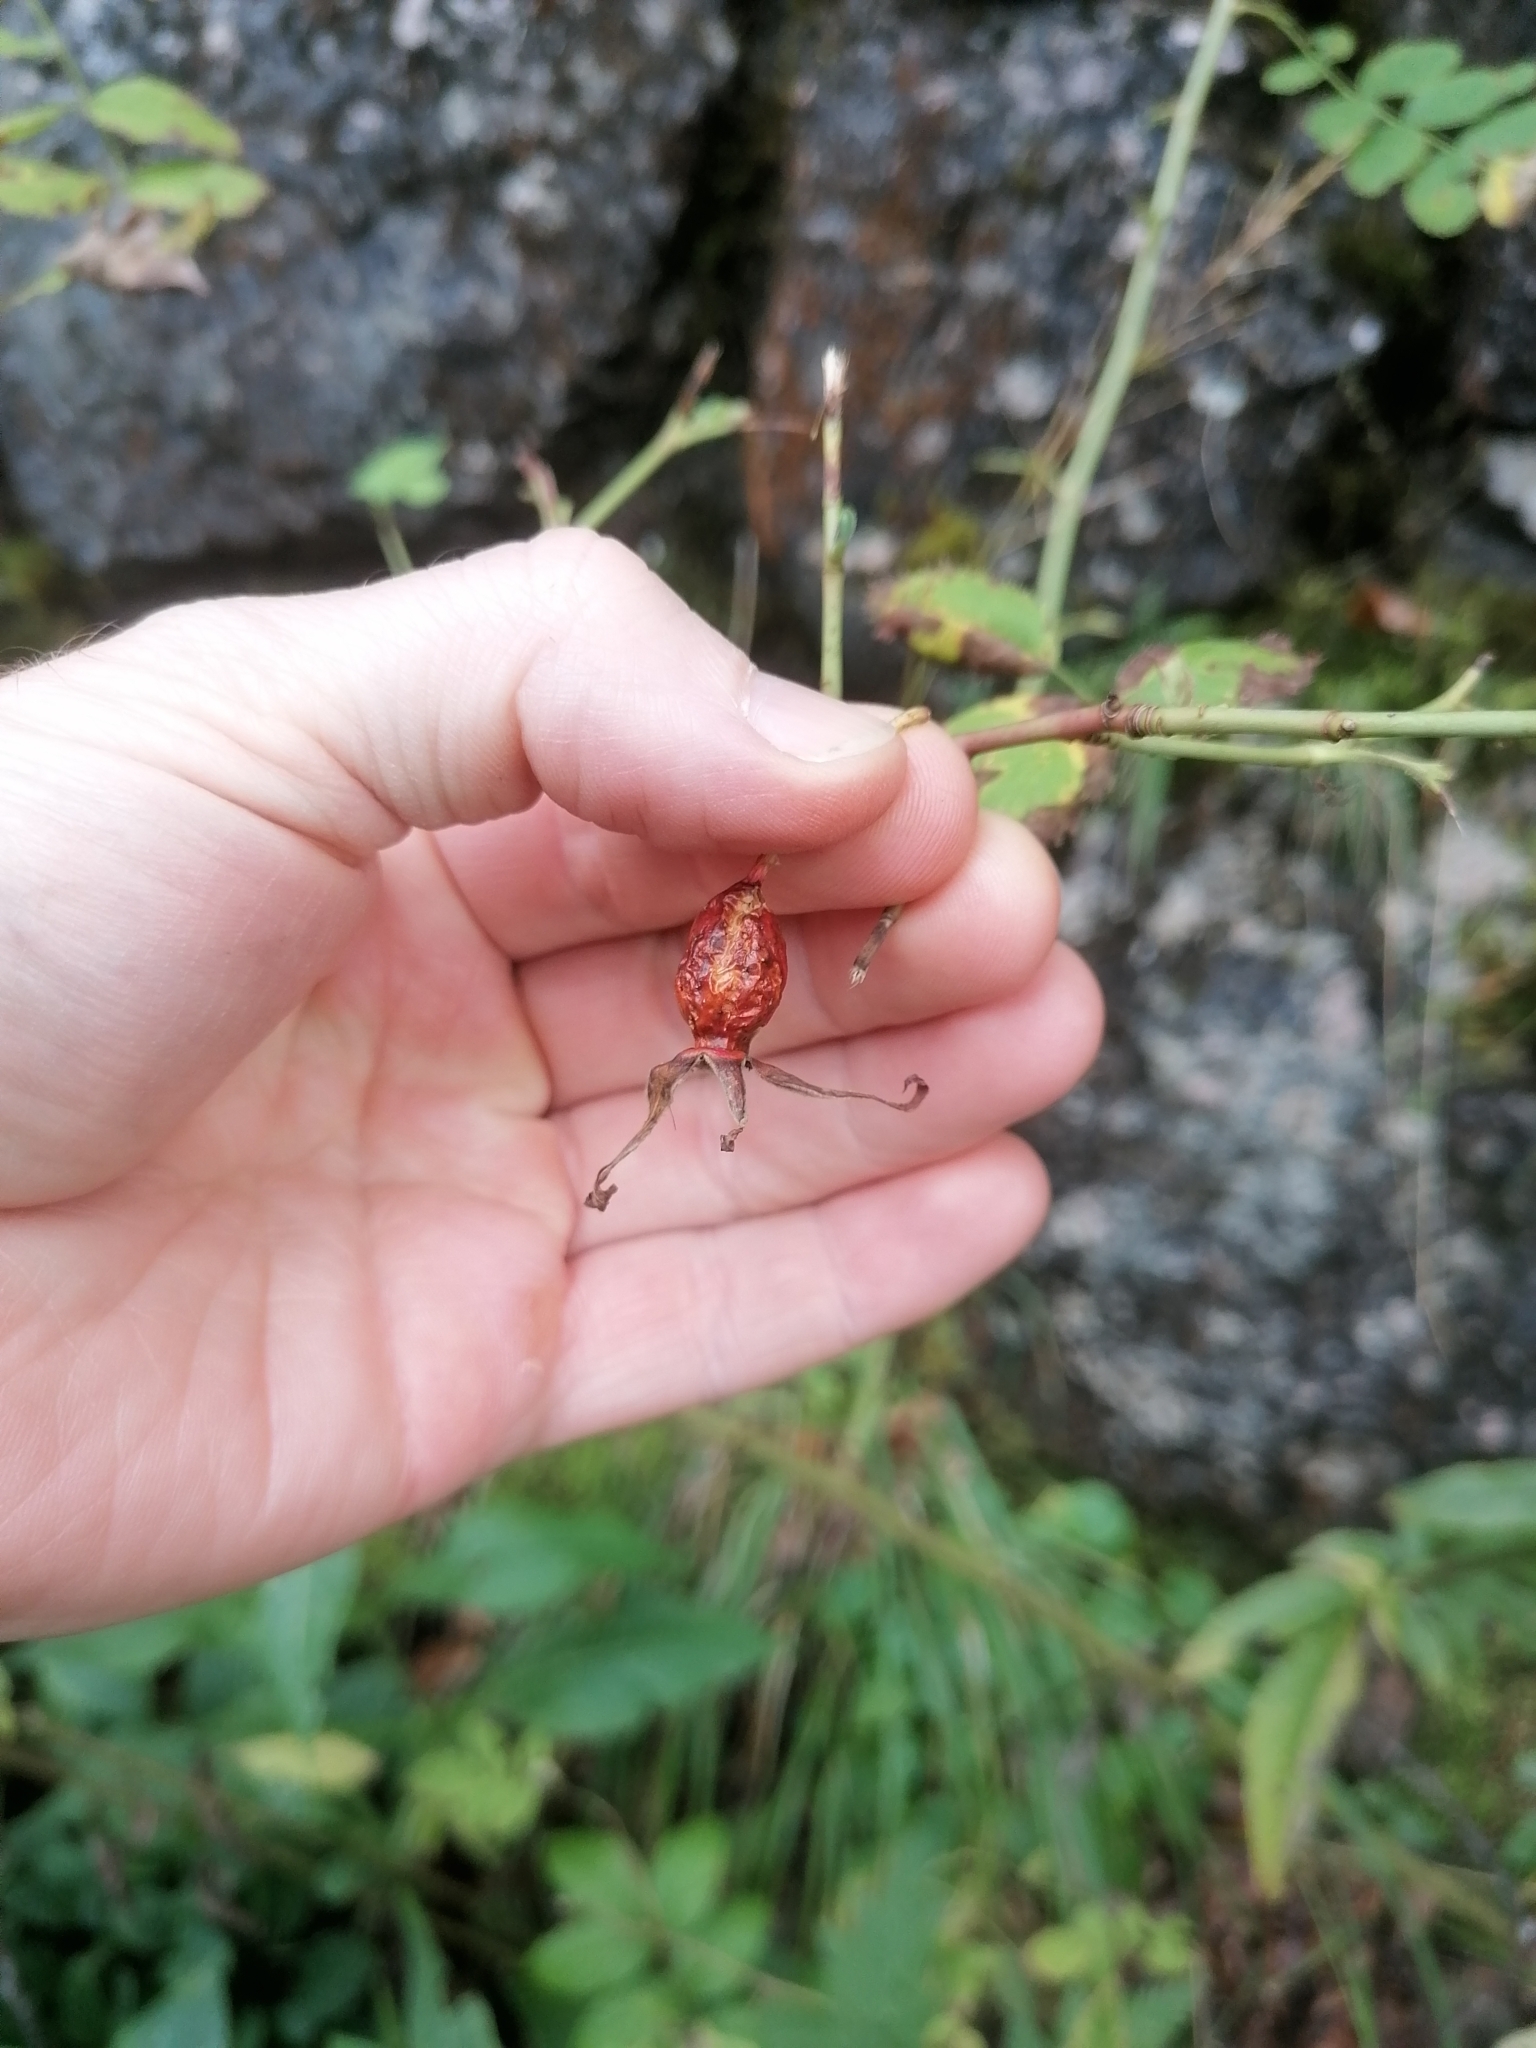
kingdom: Plantae
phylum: Tracheophyta
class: Magnoliopsida
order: Rosales
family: Rosaceae
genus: Rosa
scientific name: Rosa pendulina
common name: Alpine rose
